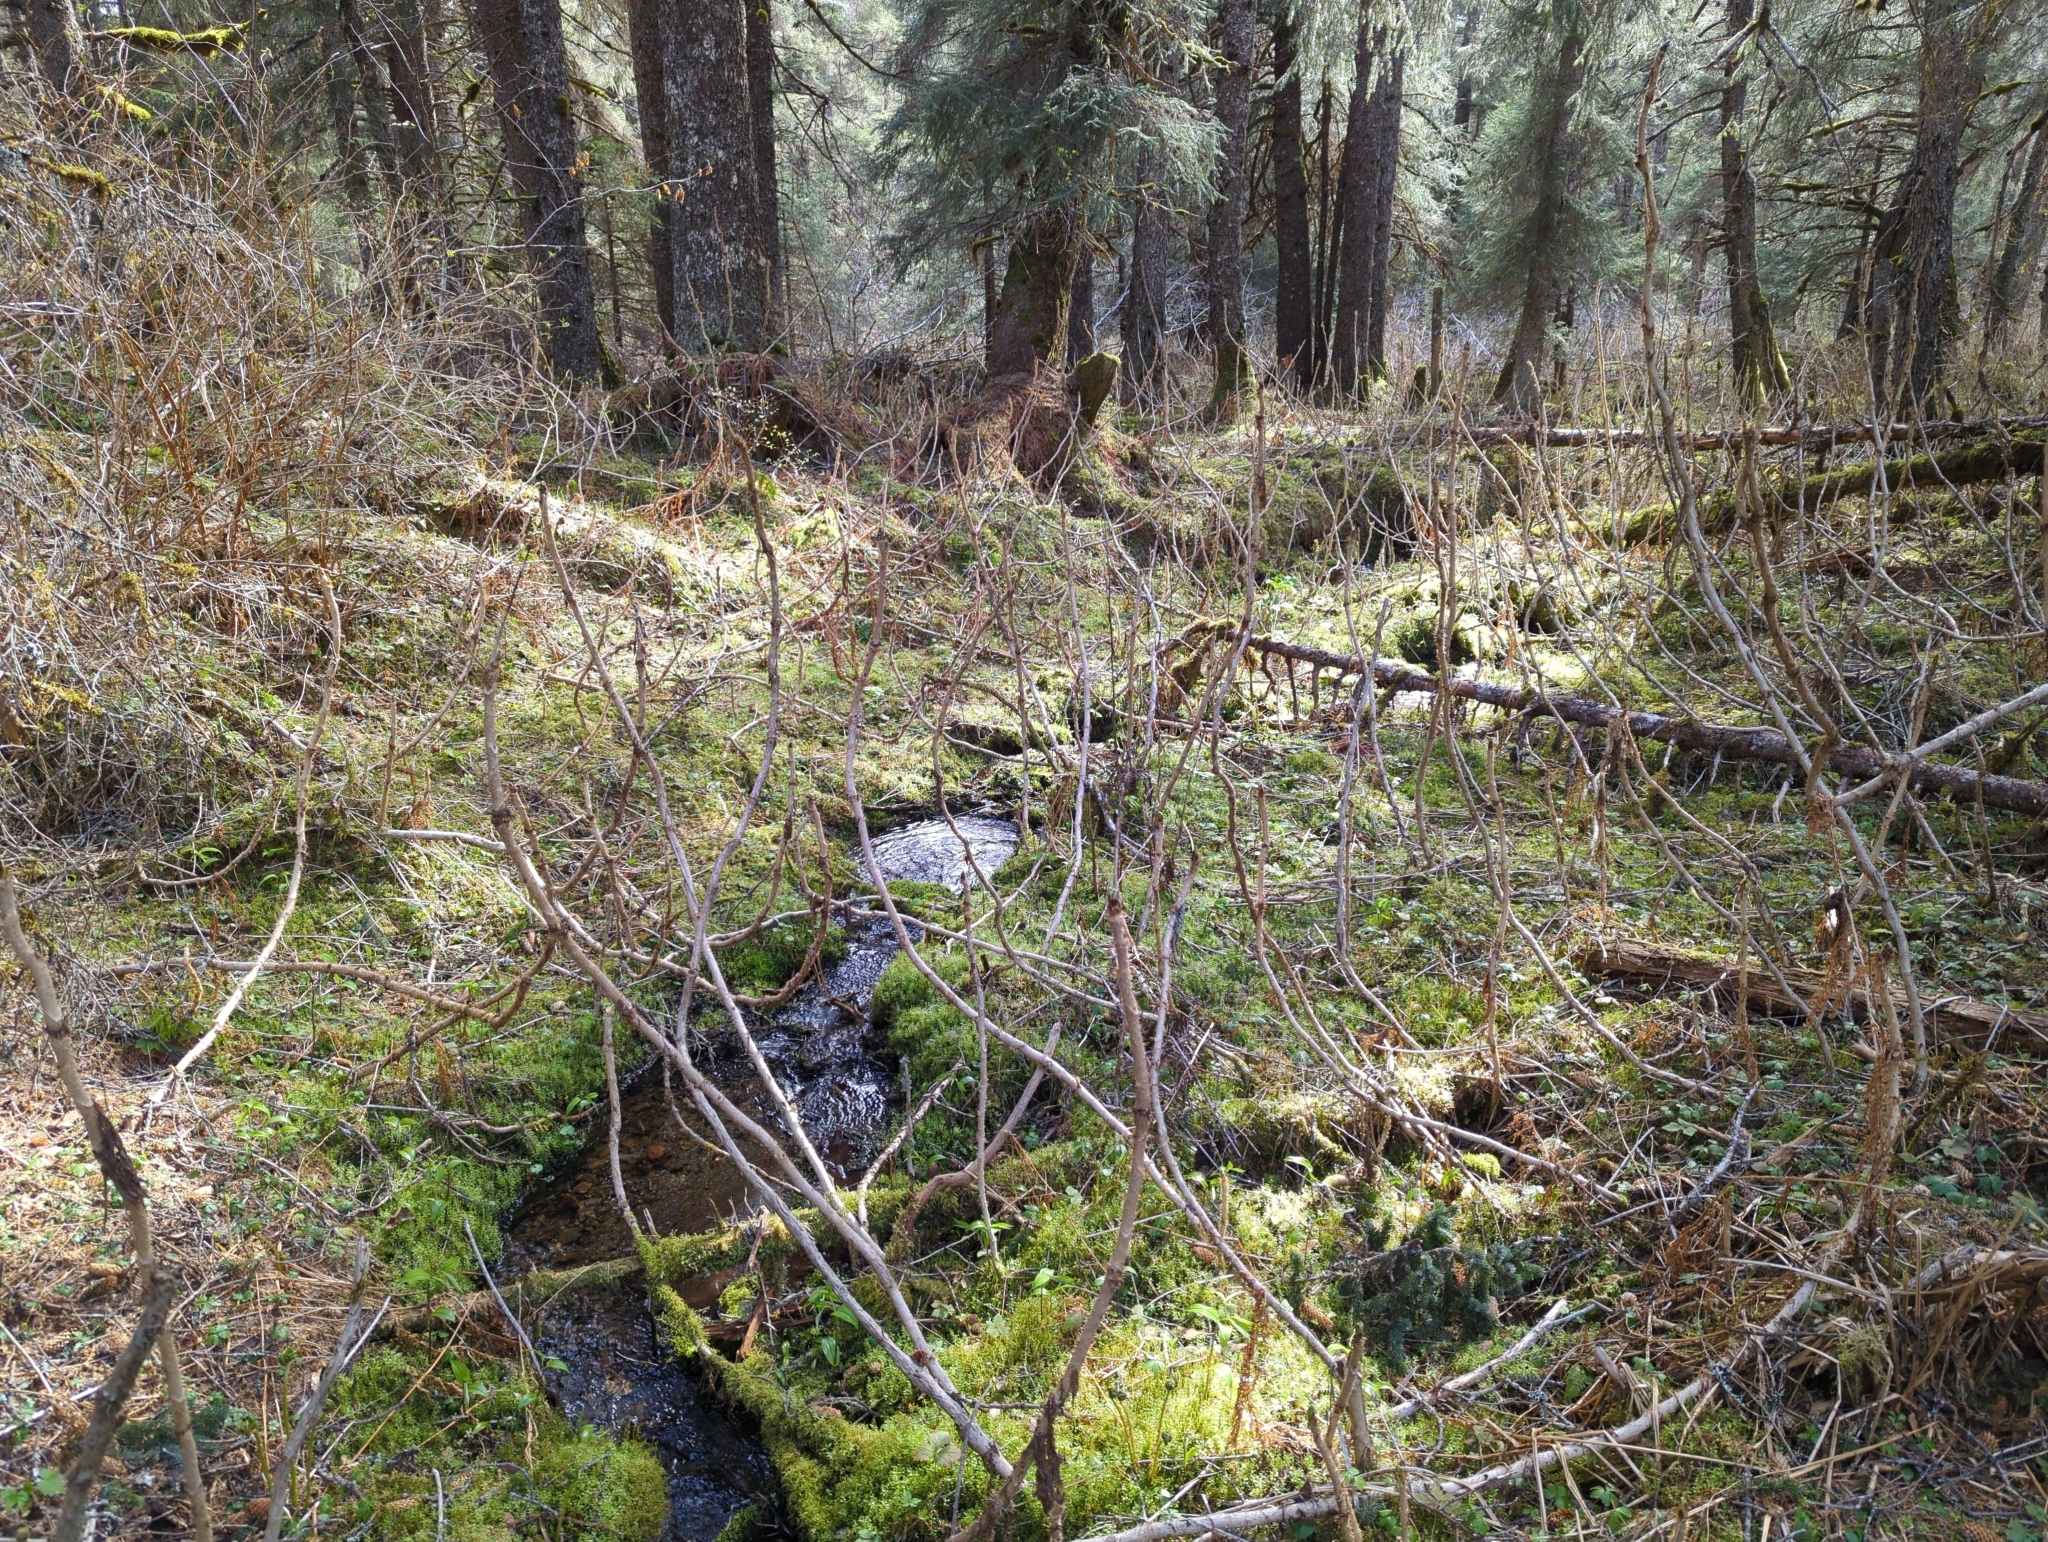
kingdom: Plantae
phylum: Tracheophyta
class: Magnoliopsida
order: Apiales
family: Araliaceae
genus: Oplopanax
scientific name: Oplopanax horridus
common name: Devil's walking-stick
